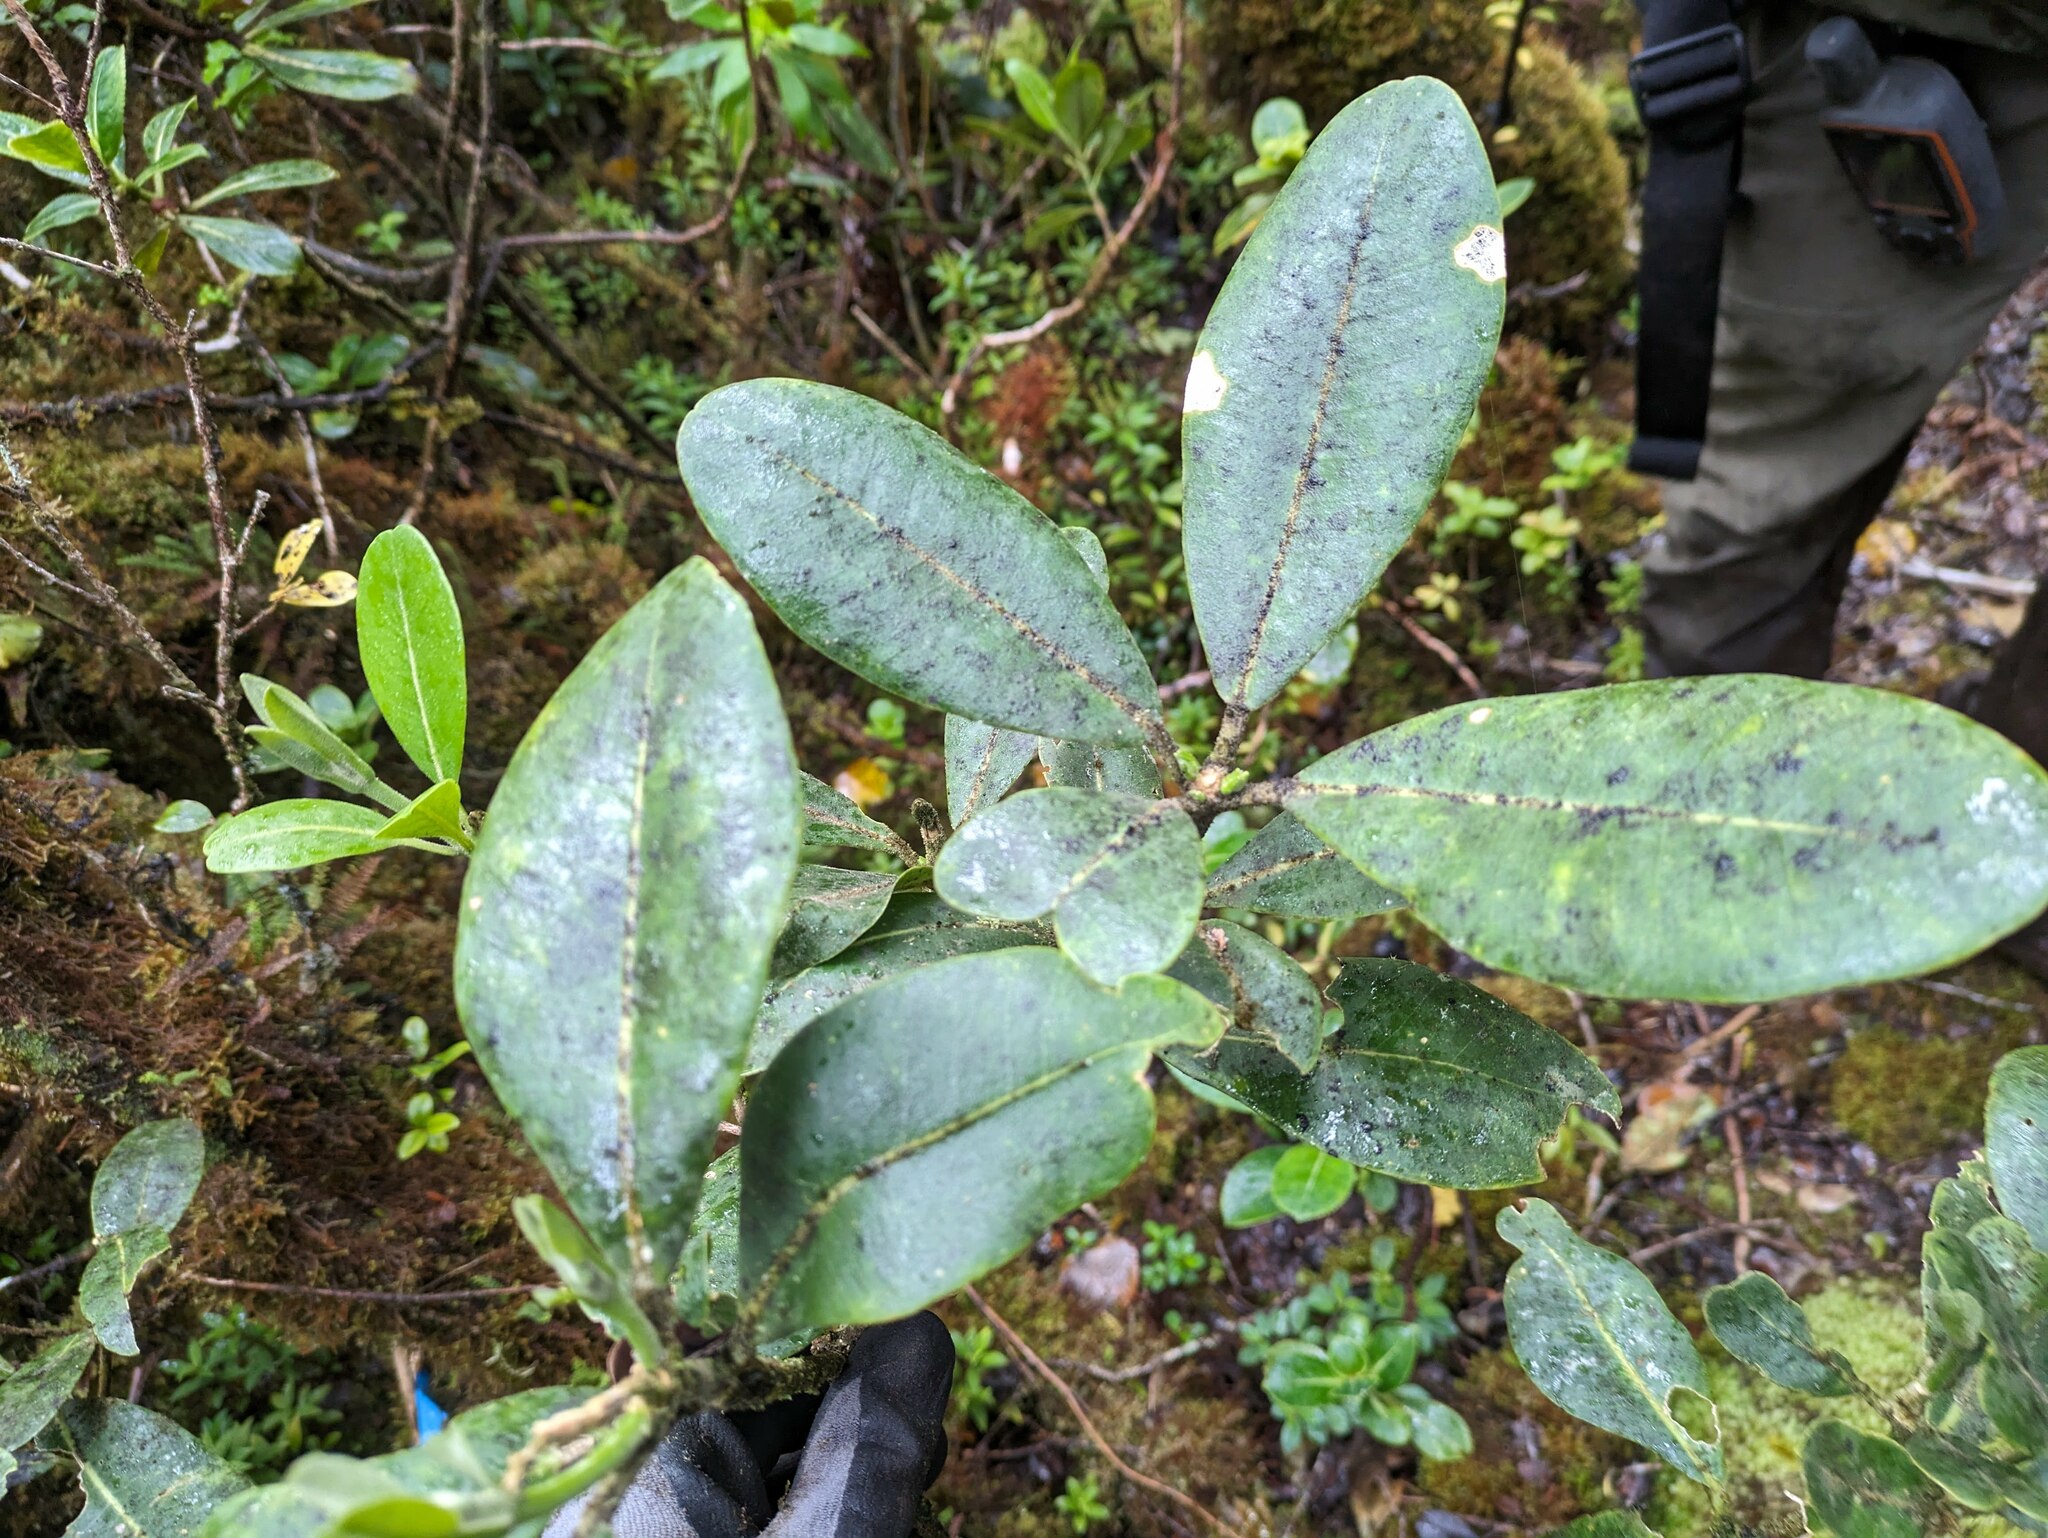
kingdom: Plantae
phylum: Tracheophyta
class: Magnoliopsida
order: Sapindales
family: Rutaceae
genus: Melicope
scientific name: Melicope clusiifolia
